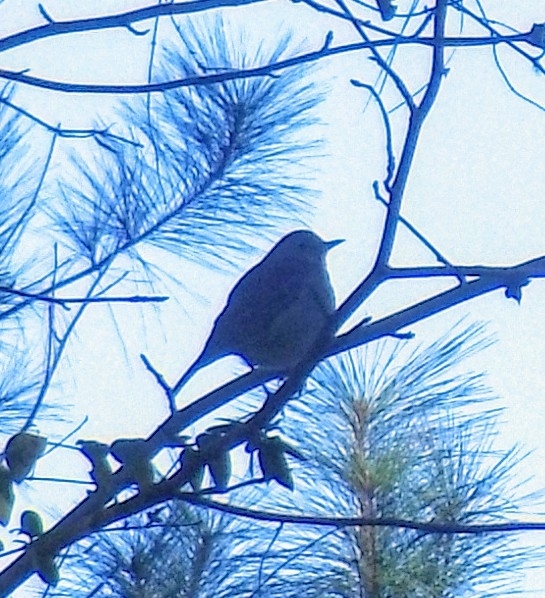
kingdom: Animalia
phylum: Chordata
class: Aves
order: Passeriformes
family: Turdidae
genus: Catharus
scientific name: Catharus guttatus
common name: Hermit thrush
